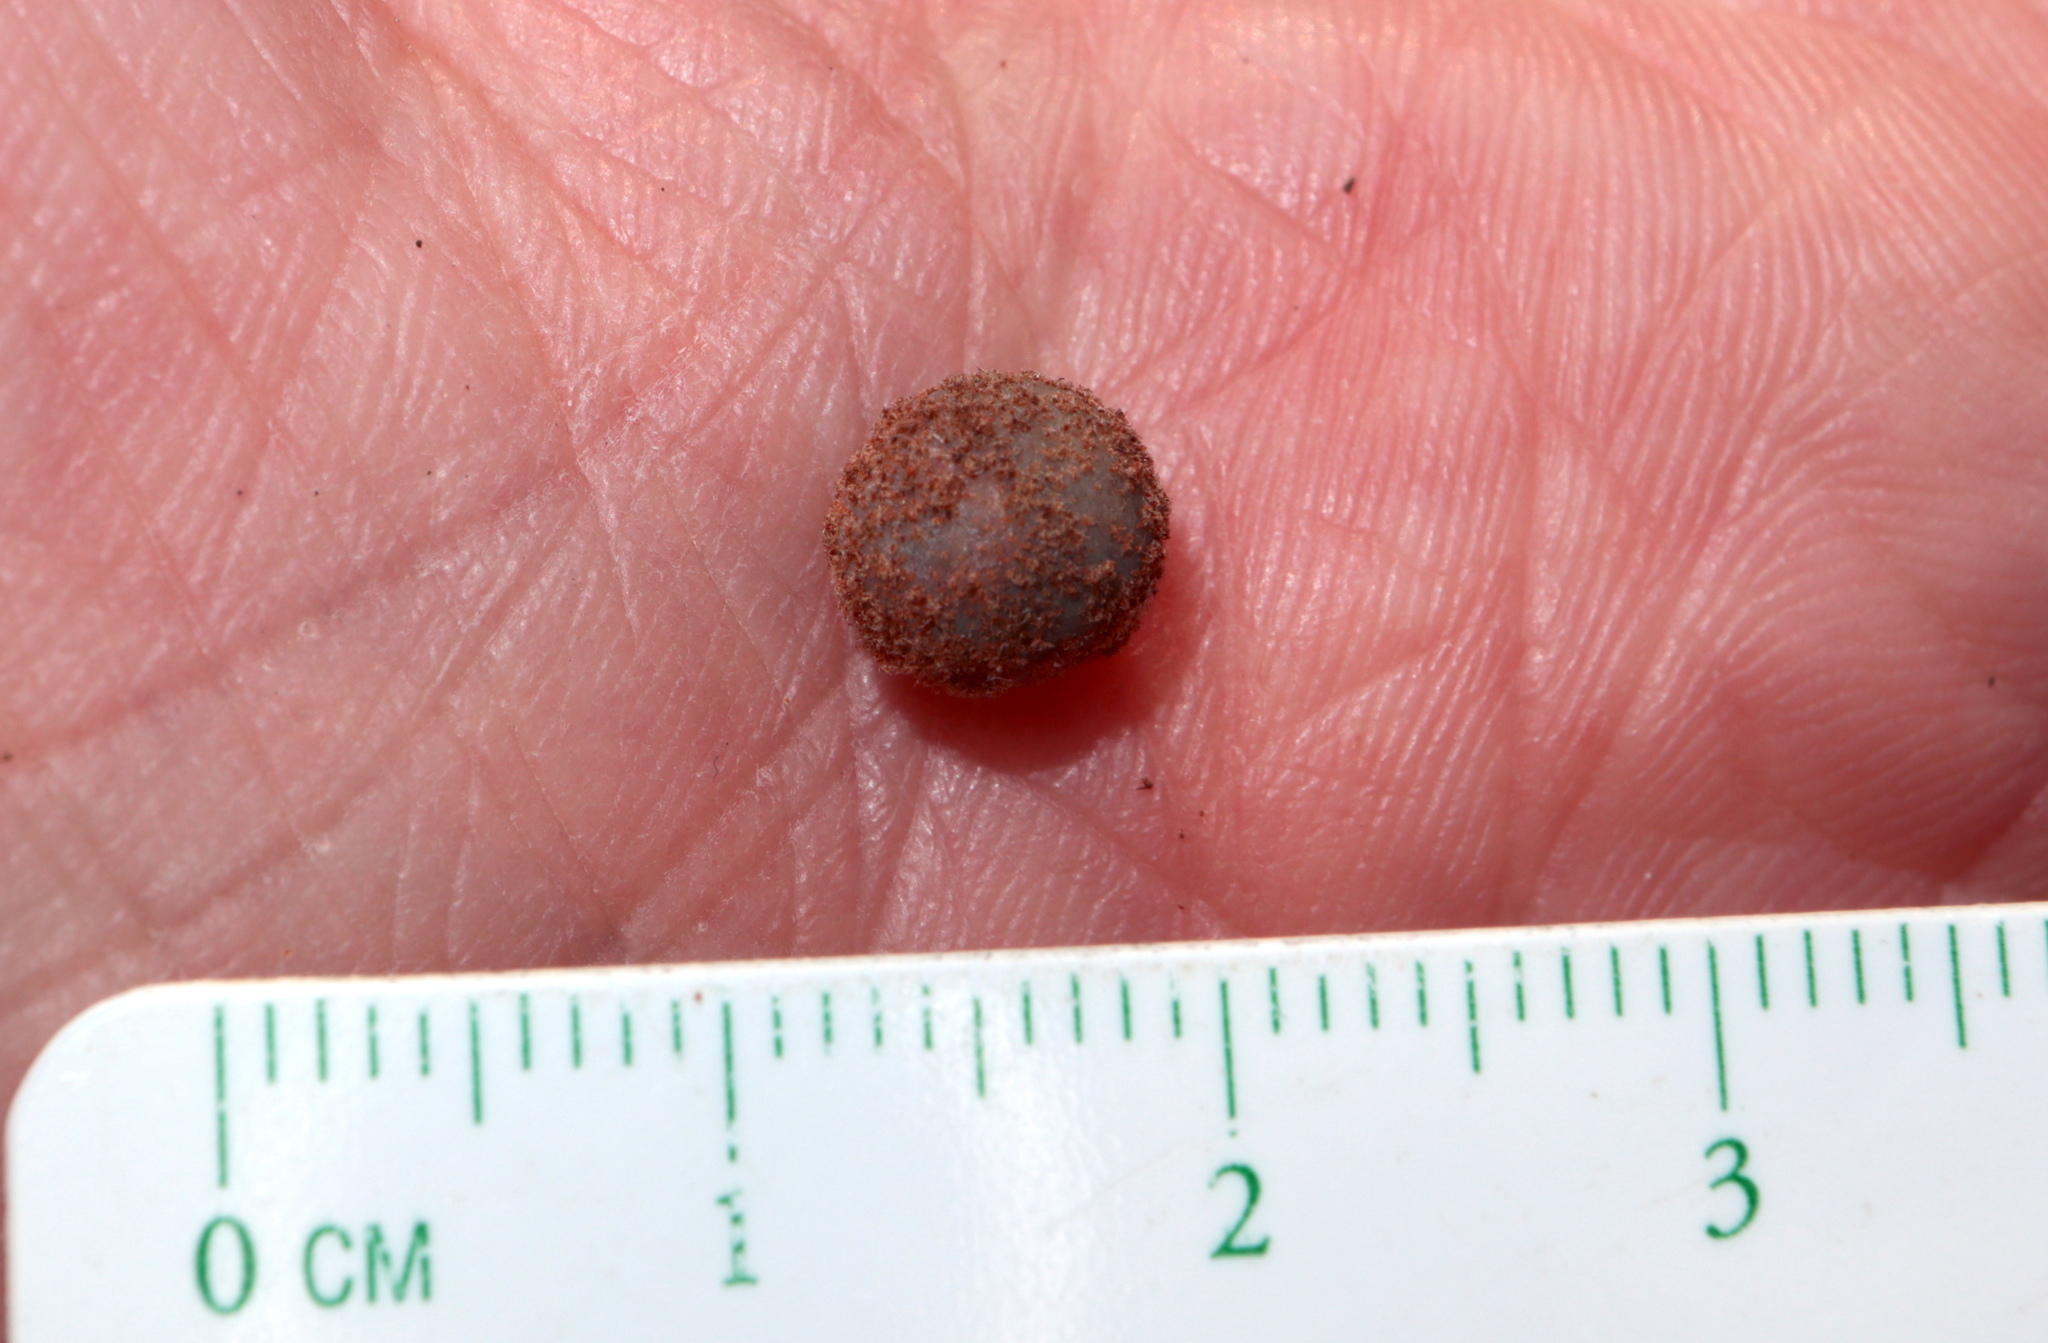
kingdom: Animalia
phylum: Arthropoda
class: Insecta
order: Hymenoptera
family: Cynipidae
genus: Biorhiza
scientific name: Biorhiza Sphaeroteras carolina
